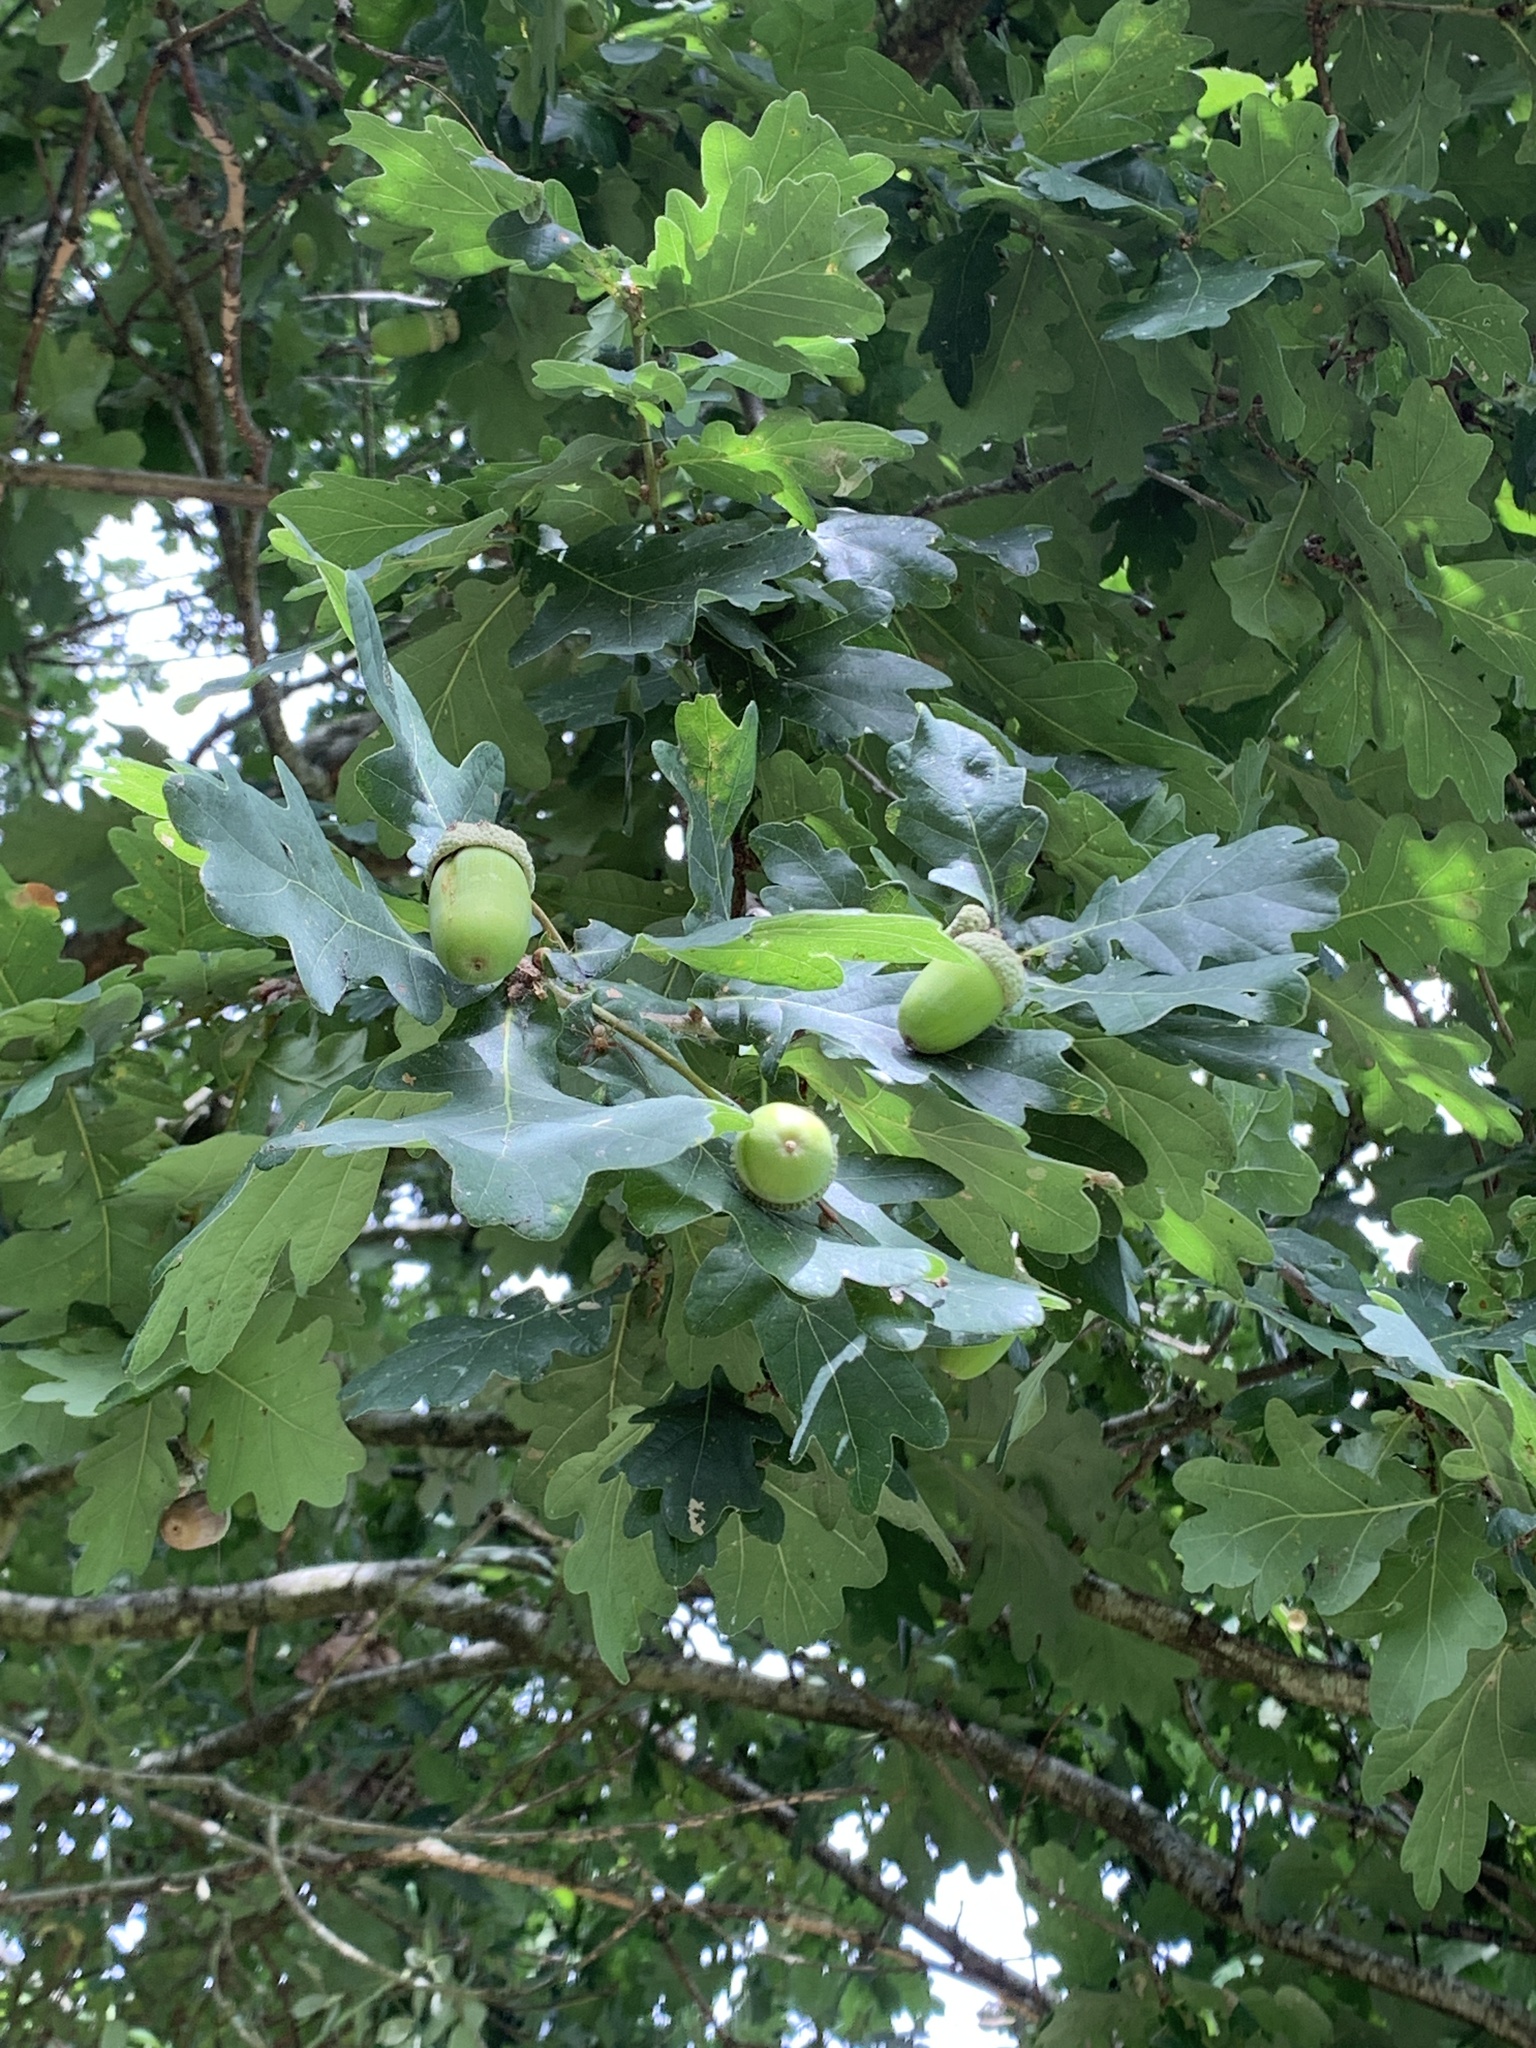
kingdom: Plantae
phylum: Tracheophyta
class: Magnoliopsida
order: Fagales
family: Fagaceae
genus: Quercus
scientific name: Quercus robur
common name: Pedunculate oak
